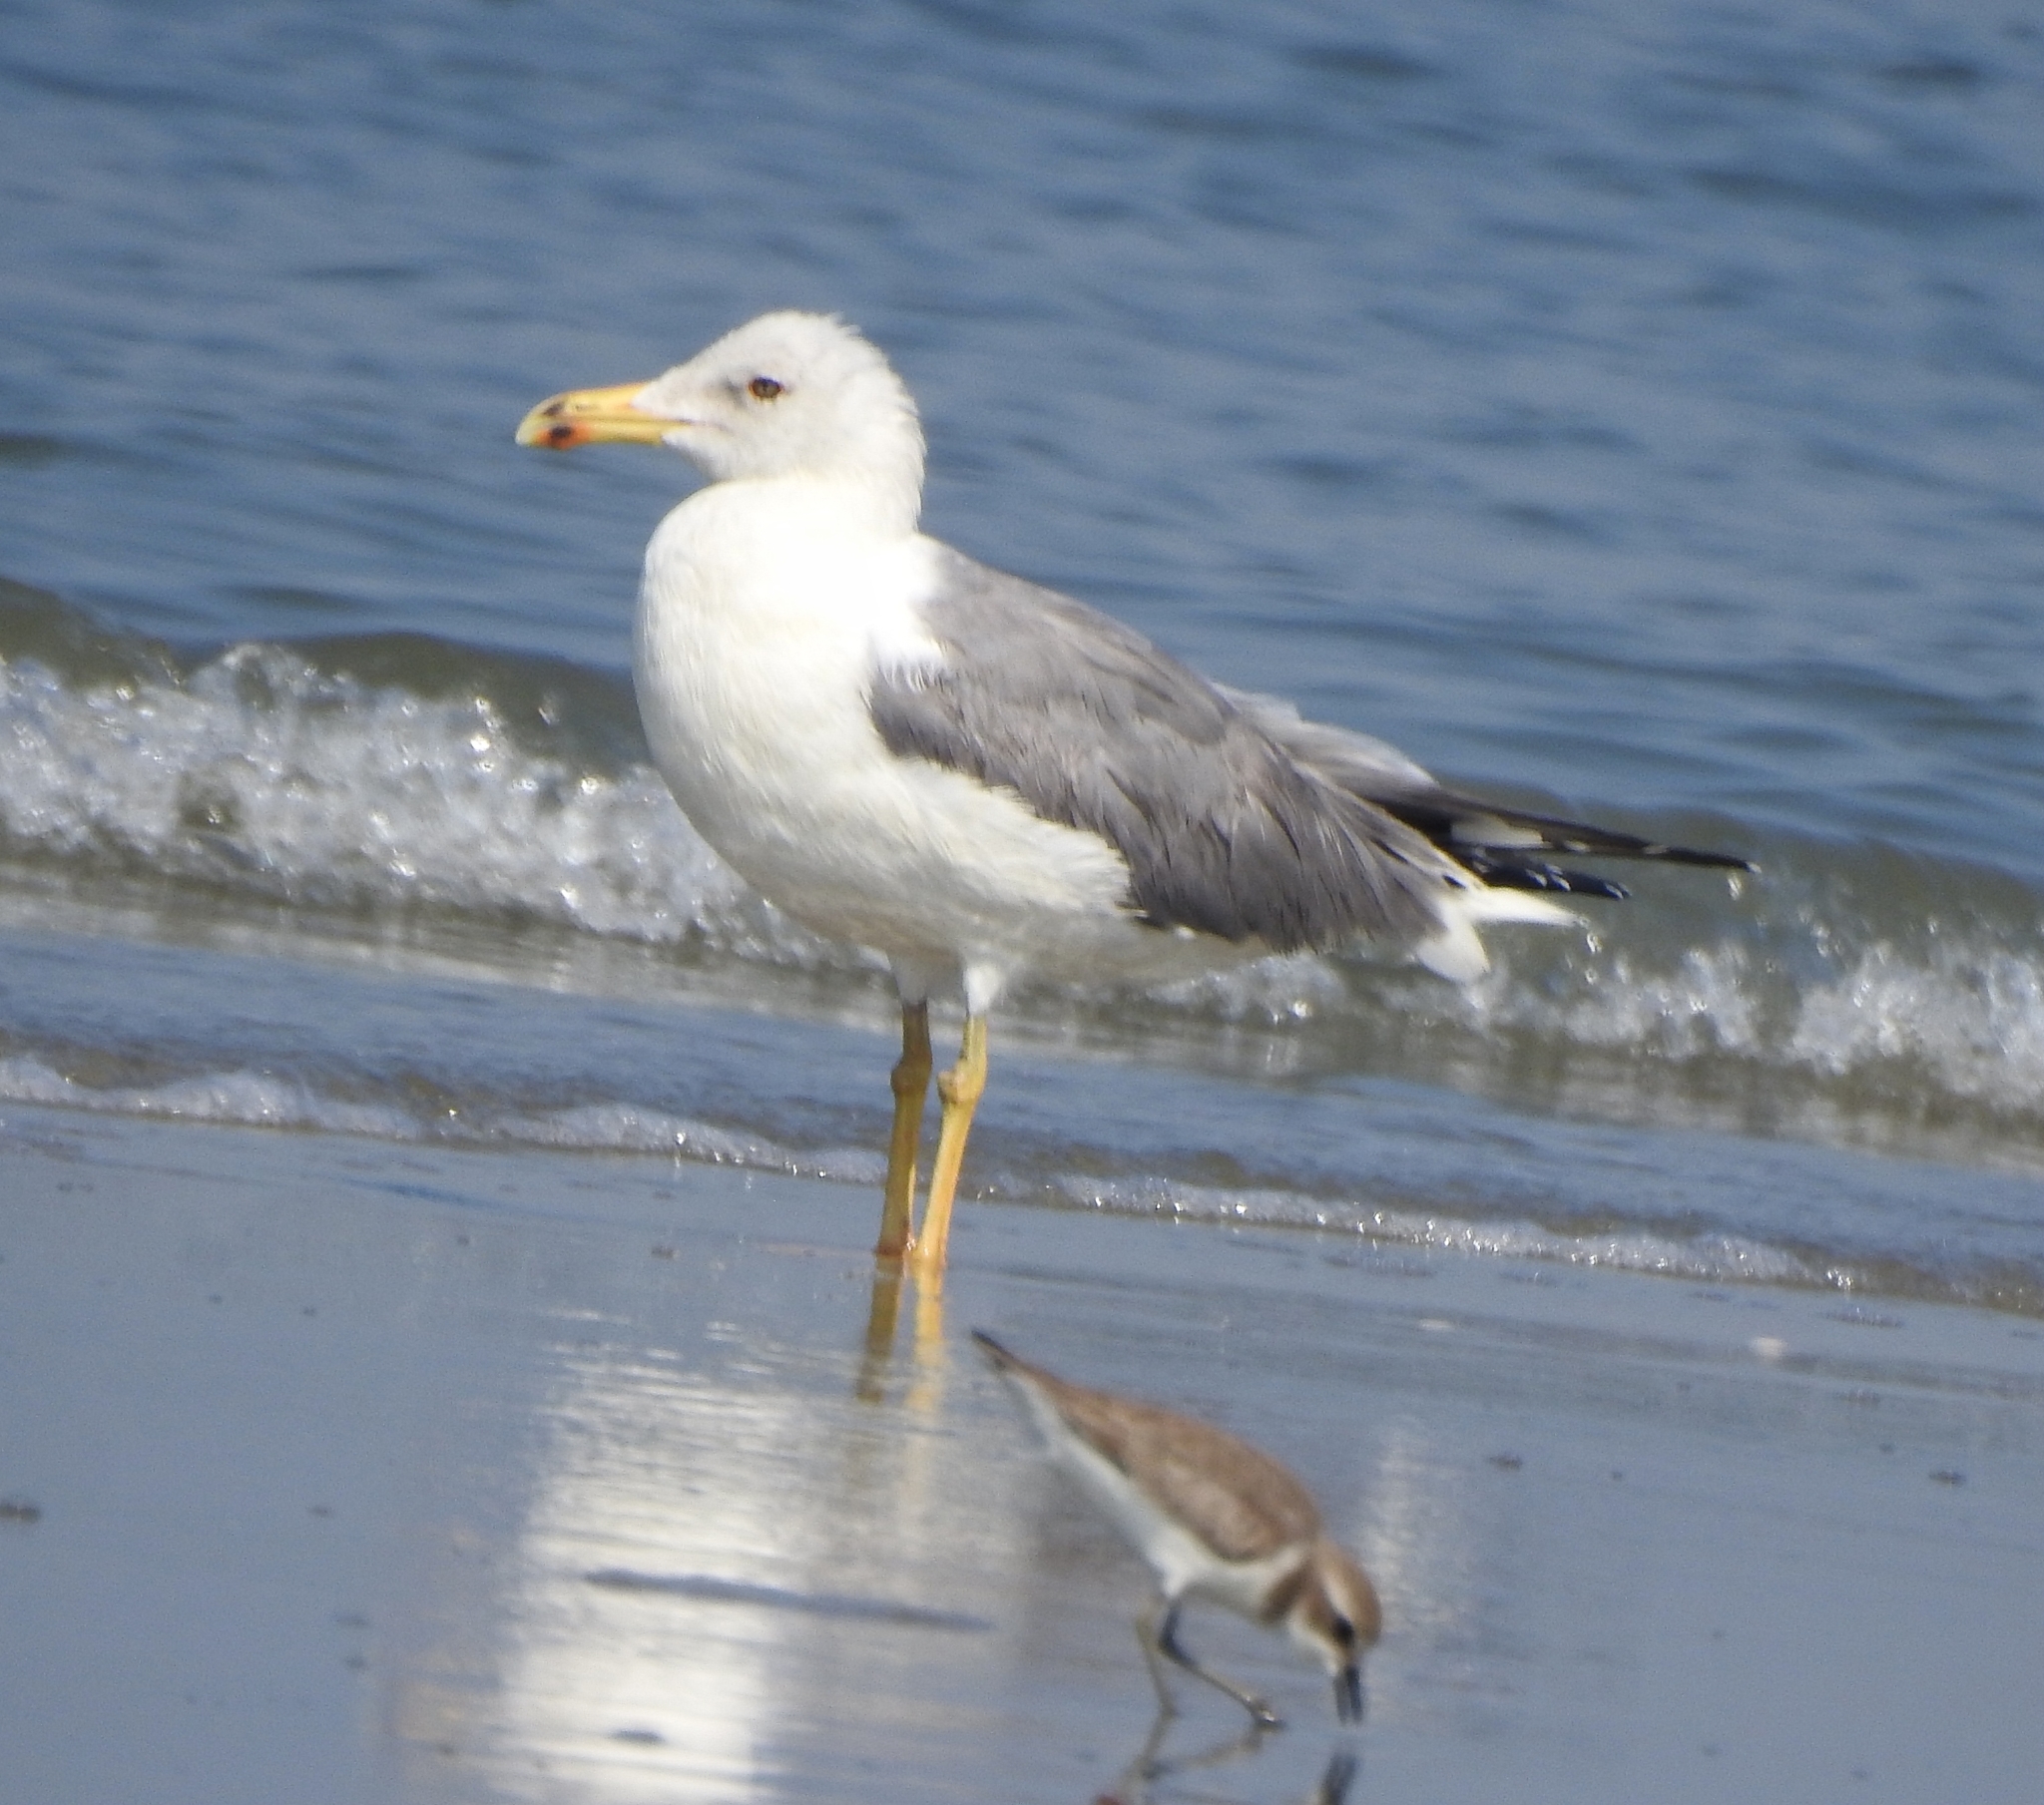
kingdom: Animalia
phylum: Chordata
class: Aves
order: Charadriiformes
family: Laridae
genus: Larus
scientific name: Larus fuscus
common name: Lesser black-backed gull
